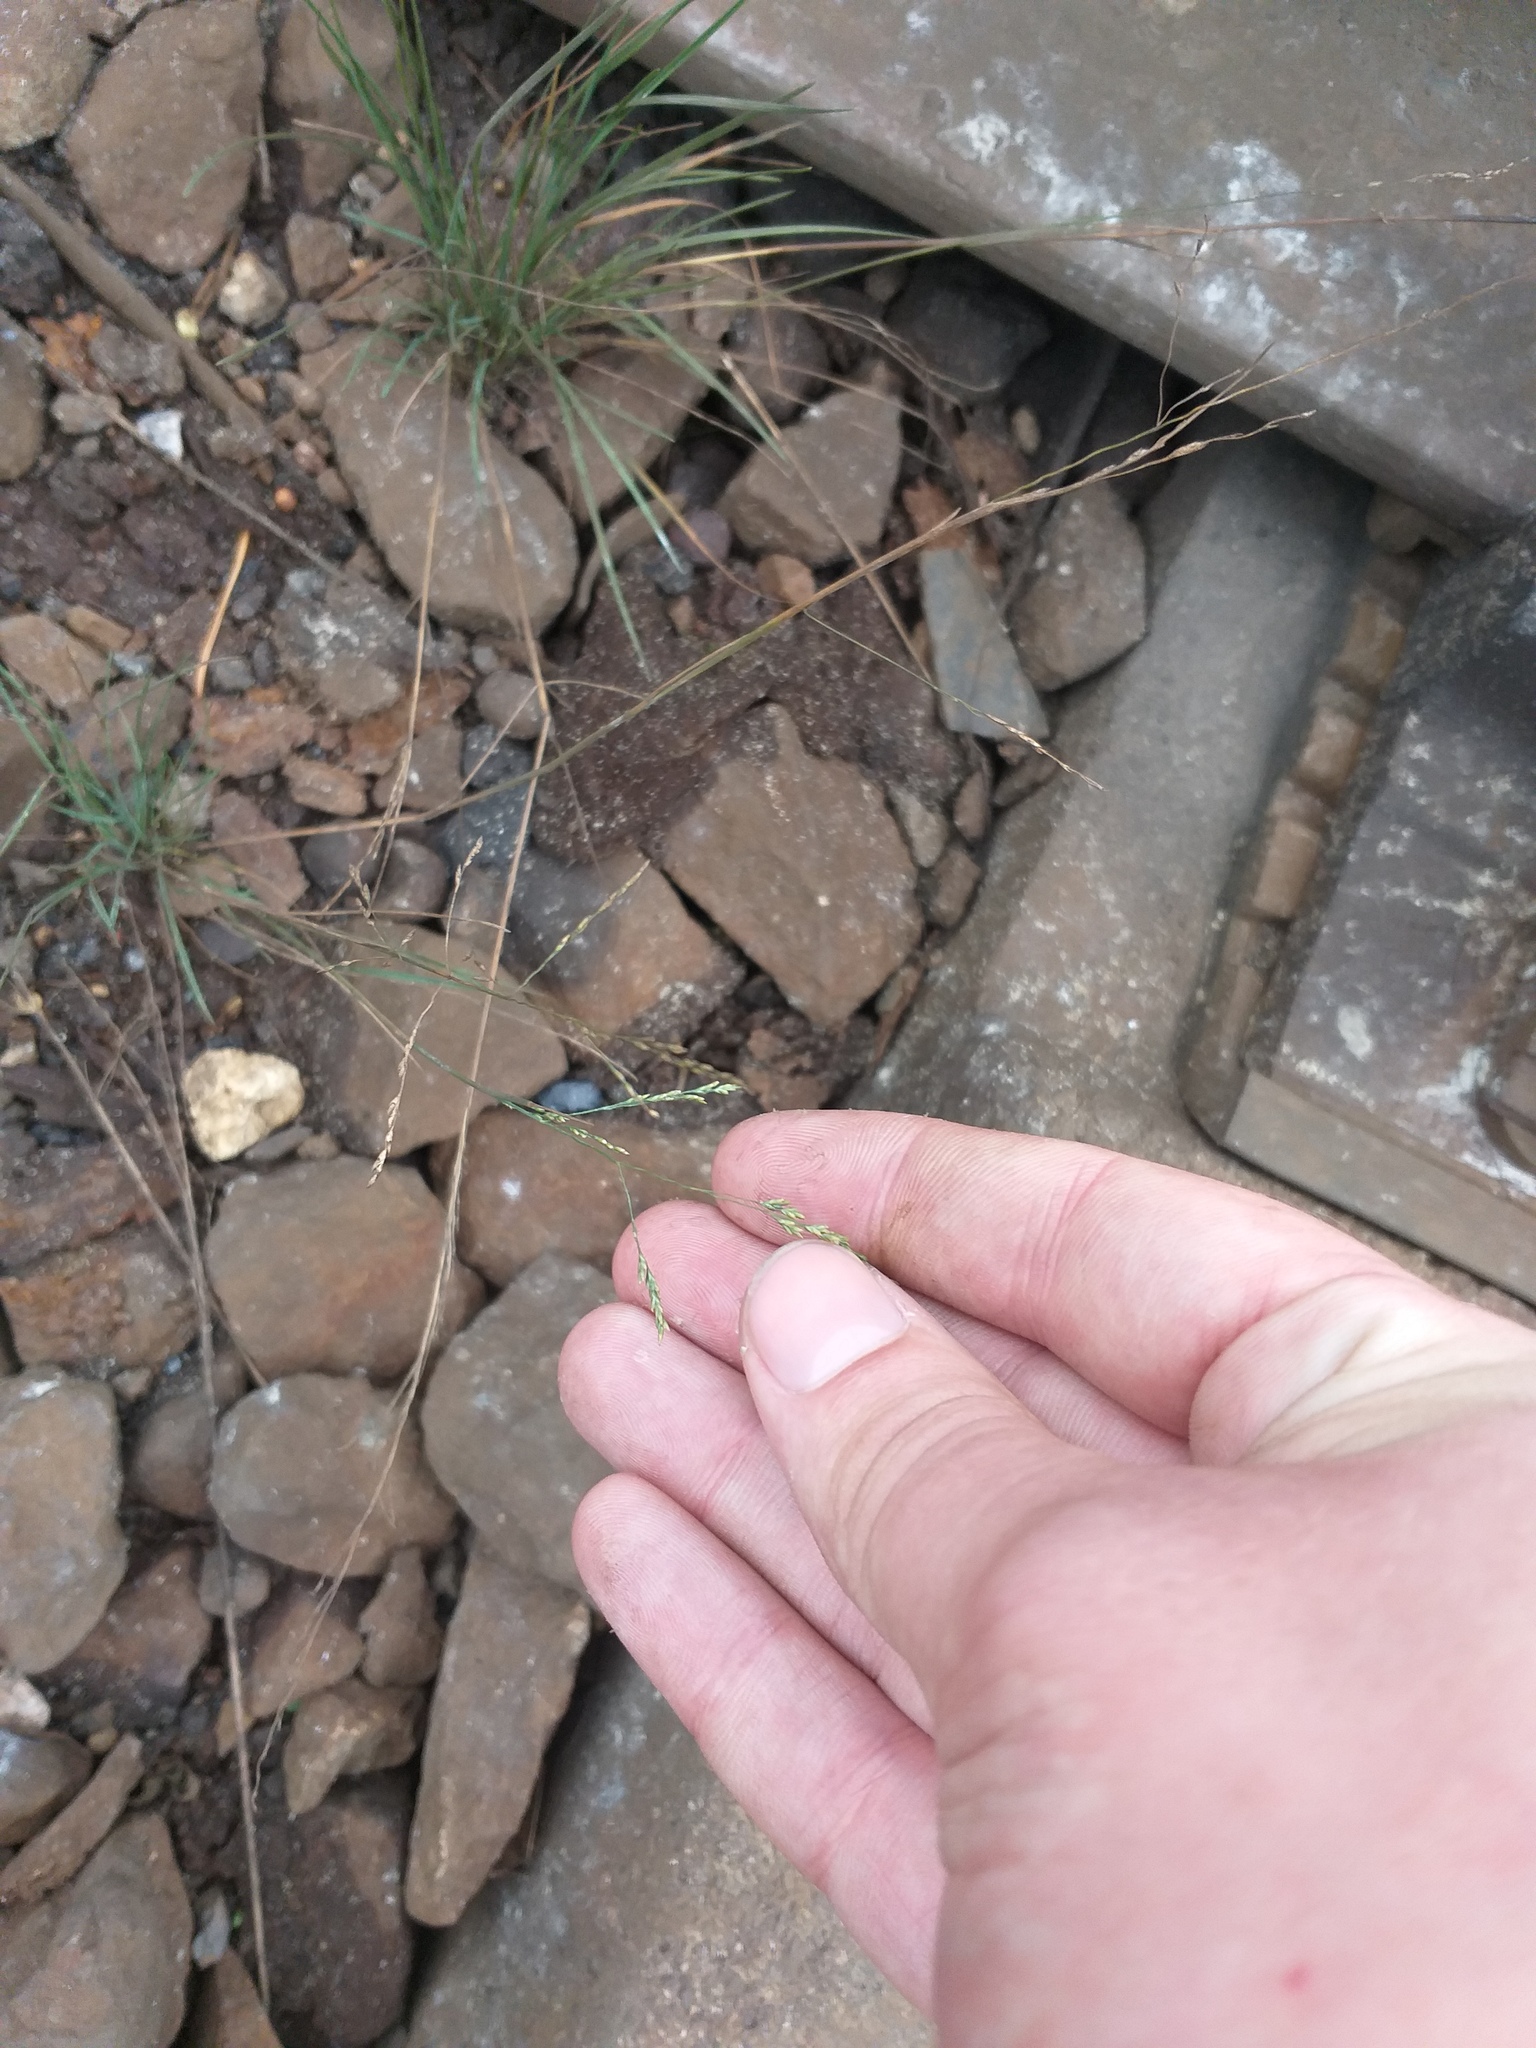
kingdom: Plantae
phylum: Tracheophyta
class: Liliopsida
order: Poales
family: Poaceae
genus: Puccinellia
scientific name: Puccinellia distans
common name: Weeping alkaligrass
